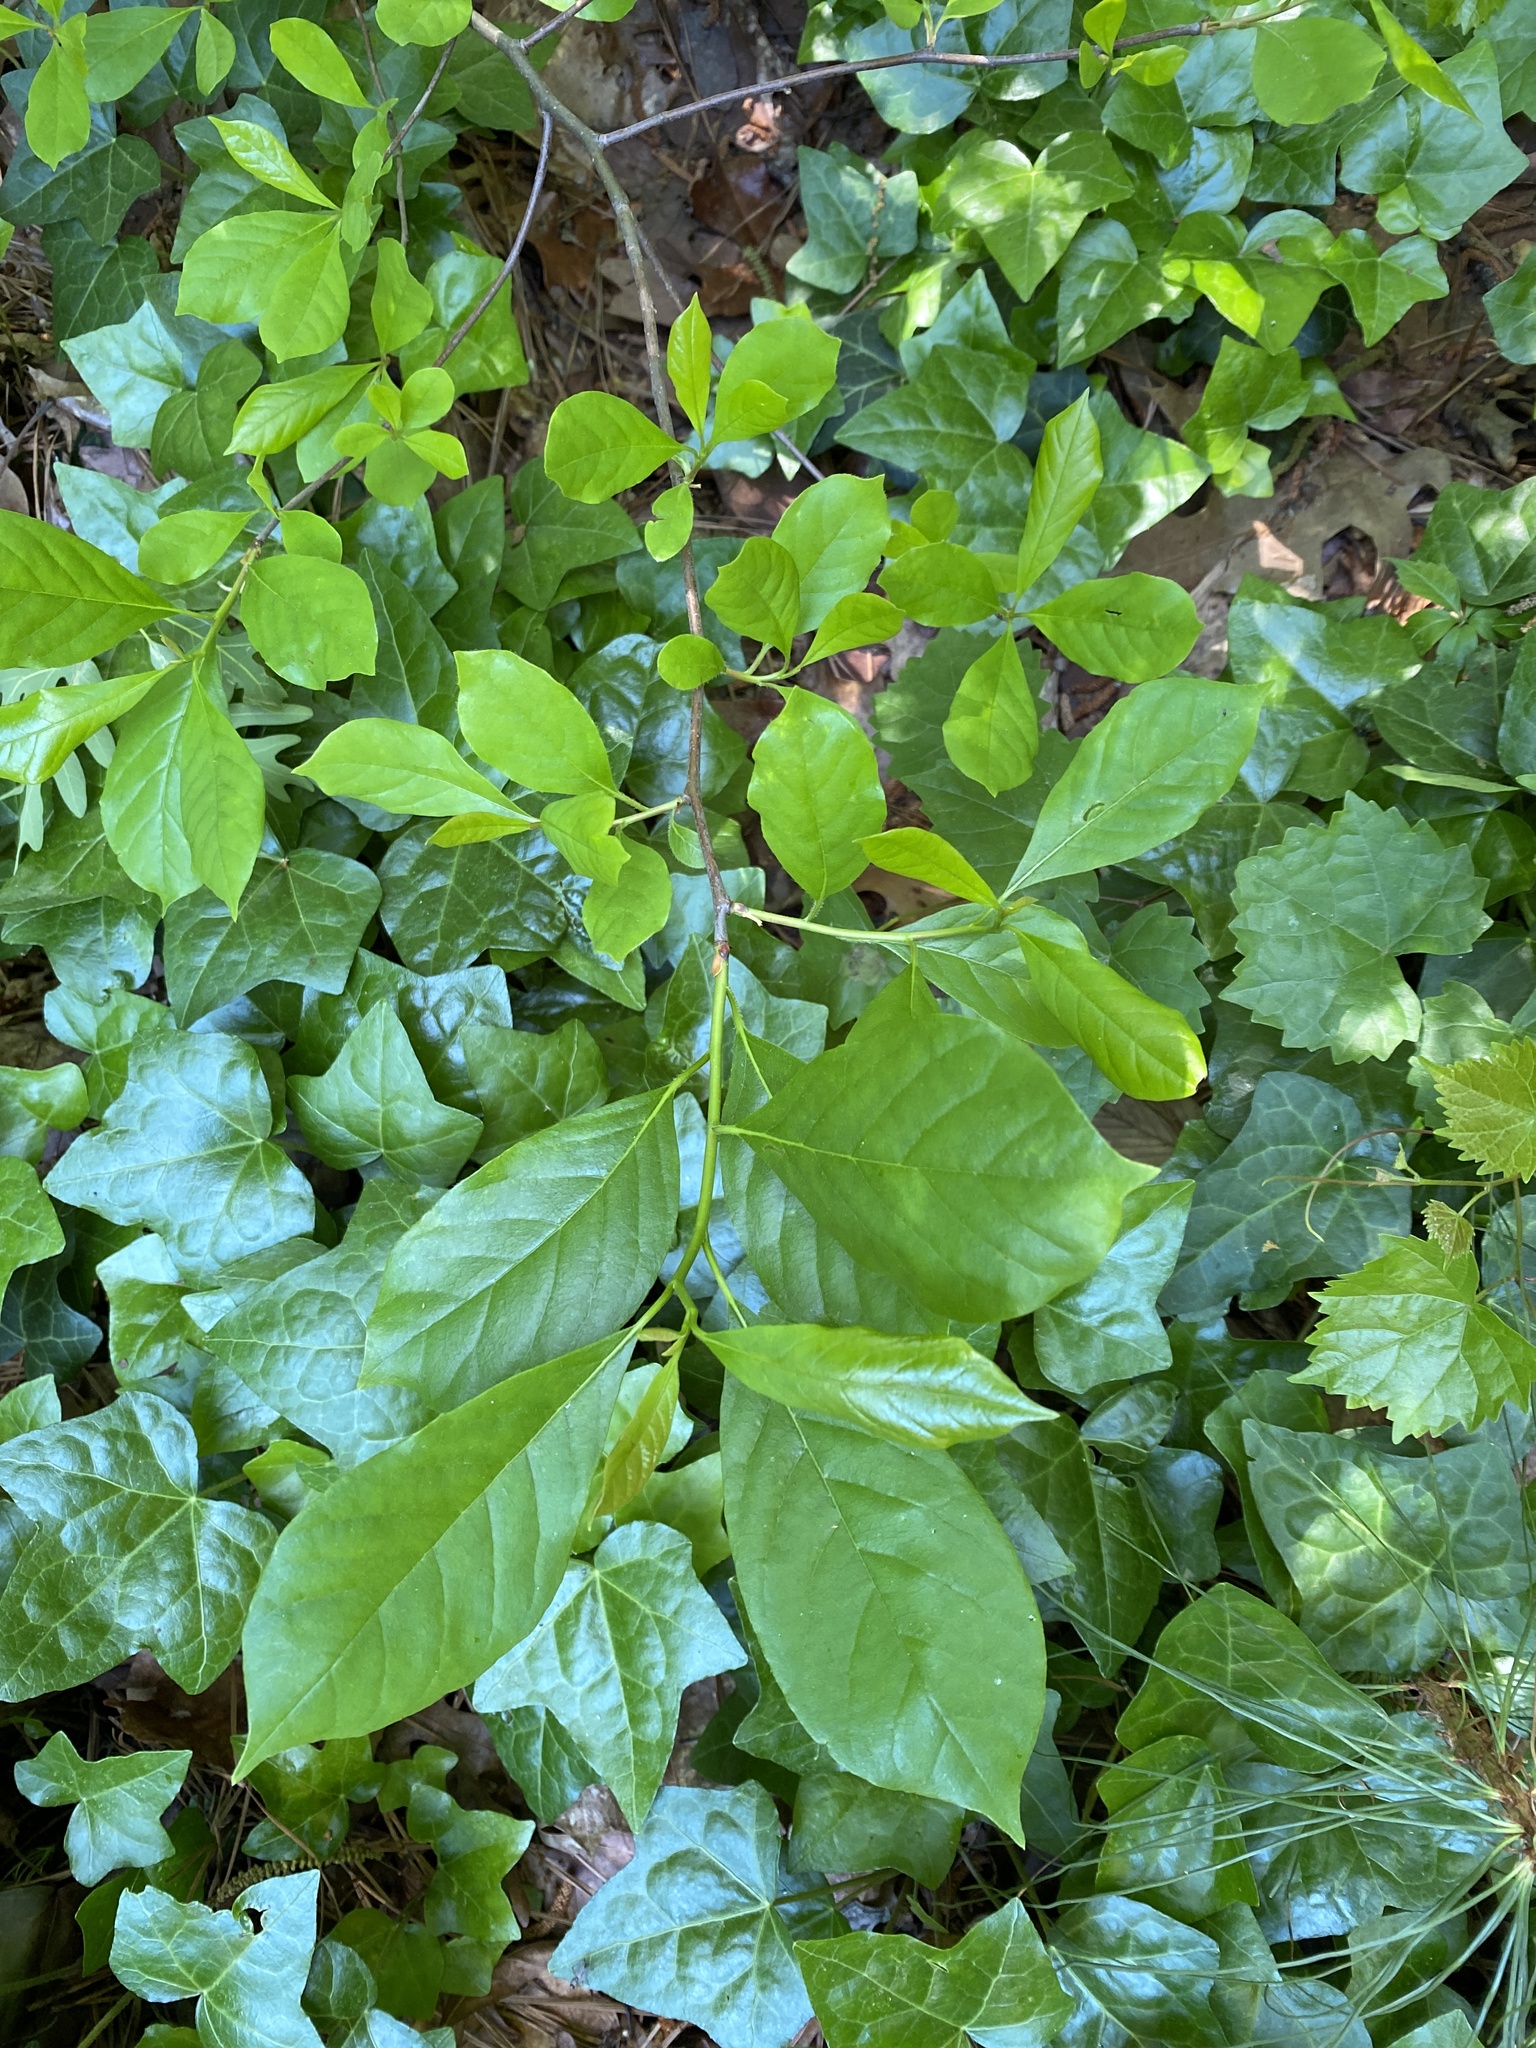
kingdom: Plantae
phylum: Tracheophyta
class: Magnoliopsida
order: Cornales
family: Nyssaceae
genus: Nyssa
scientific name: Nyssa sylvatica
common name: Black tupelo
